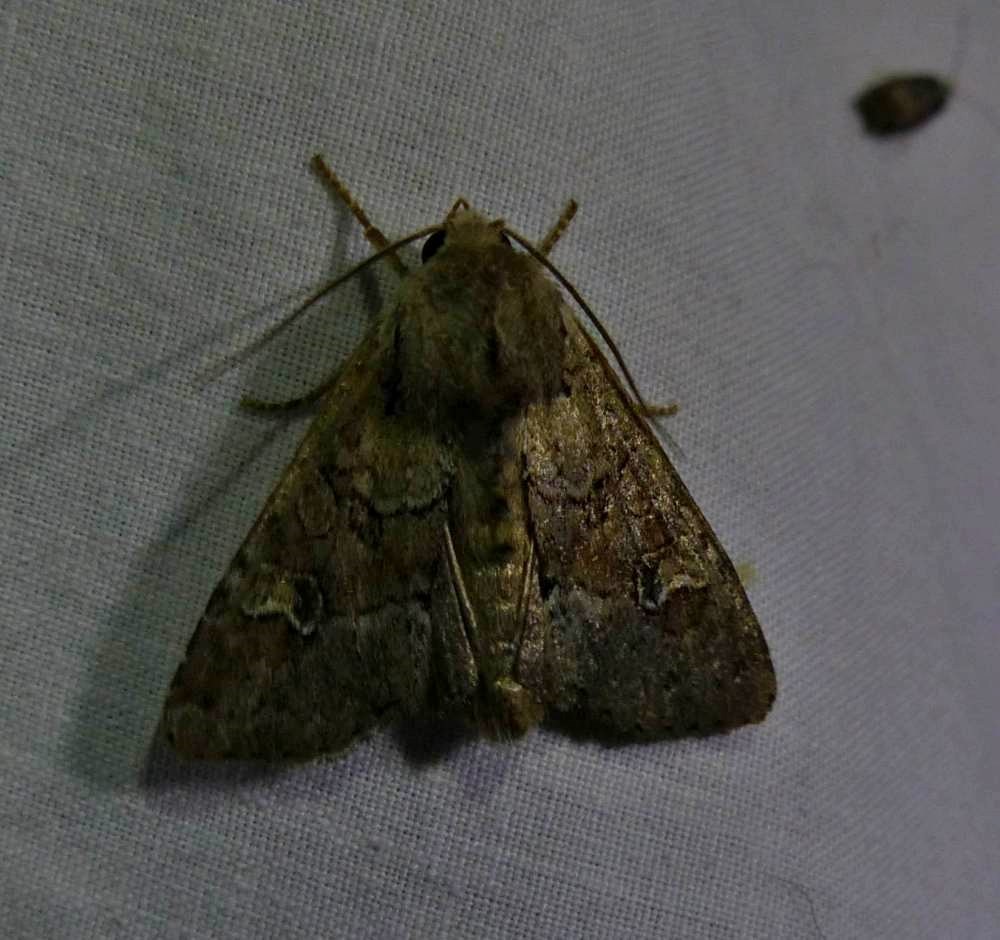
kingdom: Animalia
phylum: Arthropoda
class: Insecta
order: Lepidoptera
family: Noctuidae
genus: Apamea
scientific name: Apamea sordens
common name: Rustic shoulder-knot
